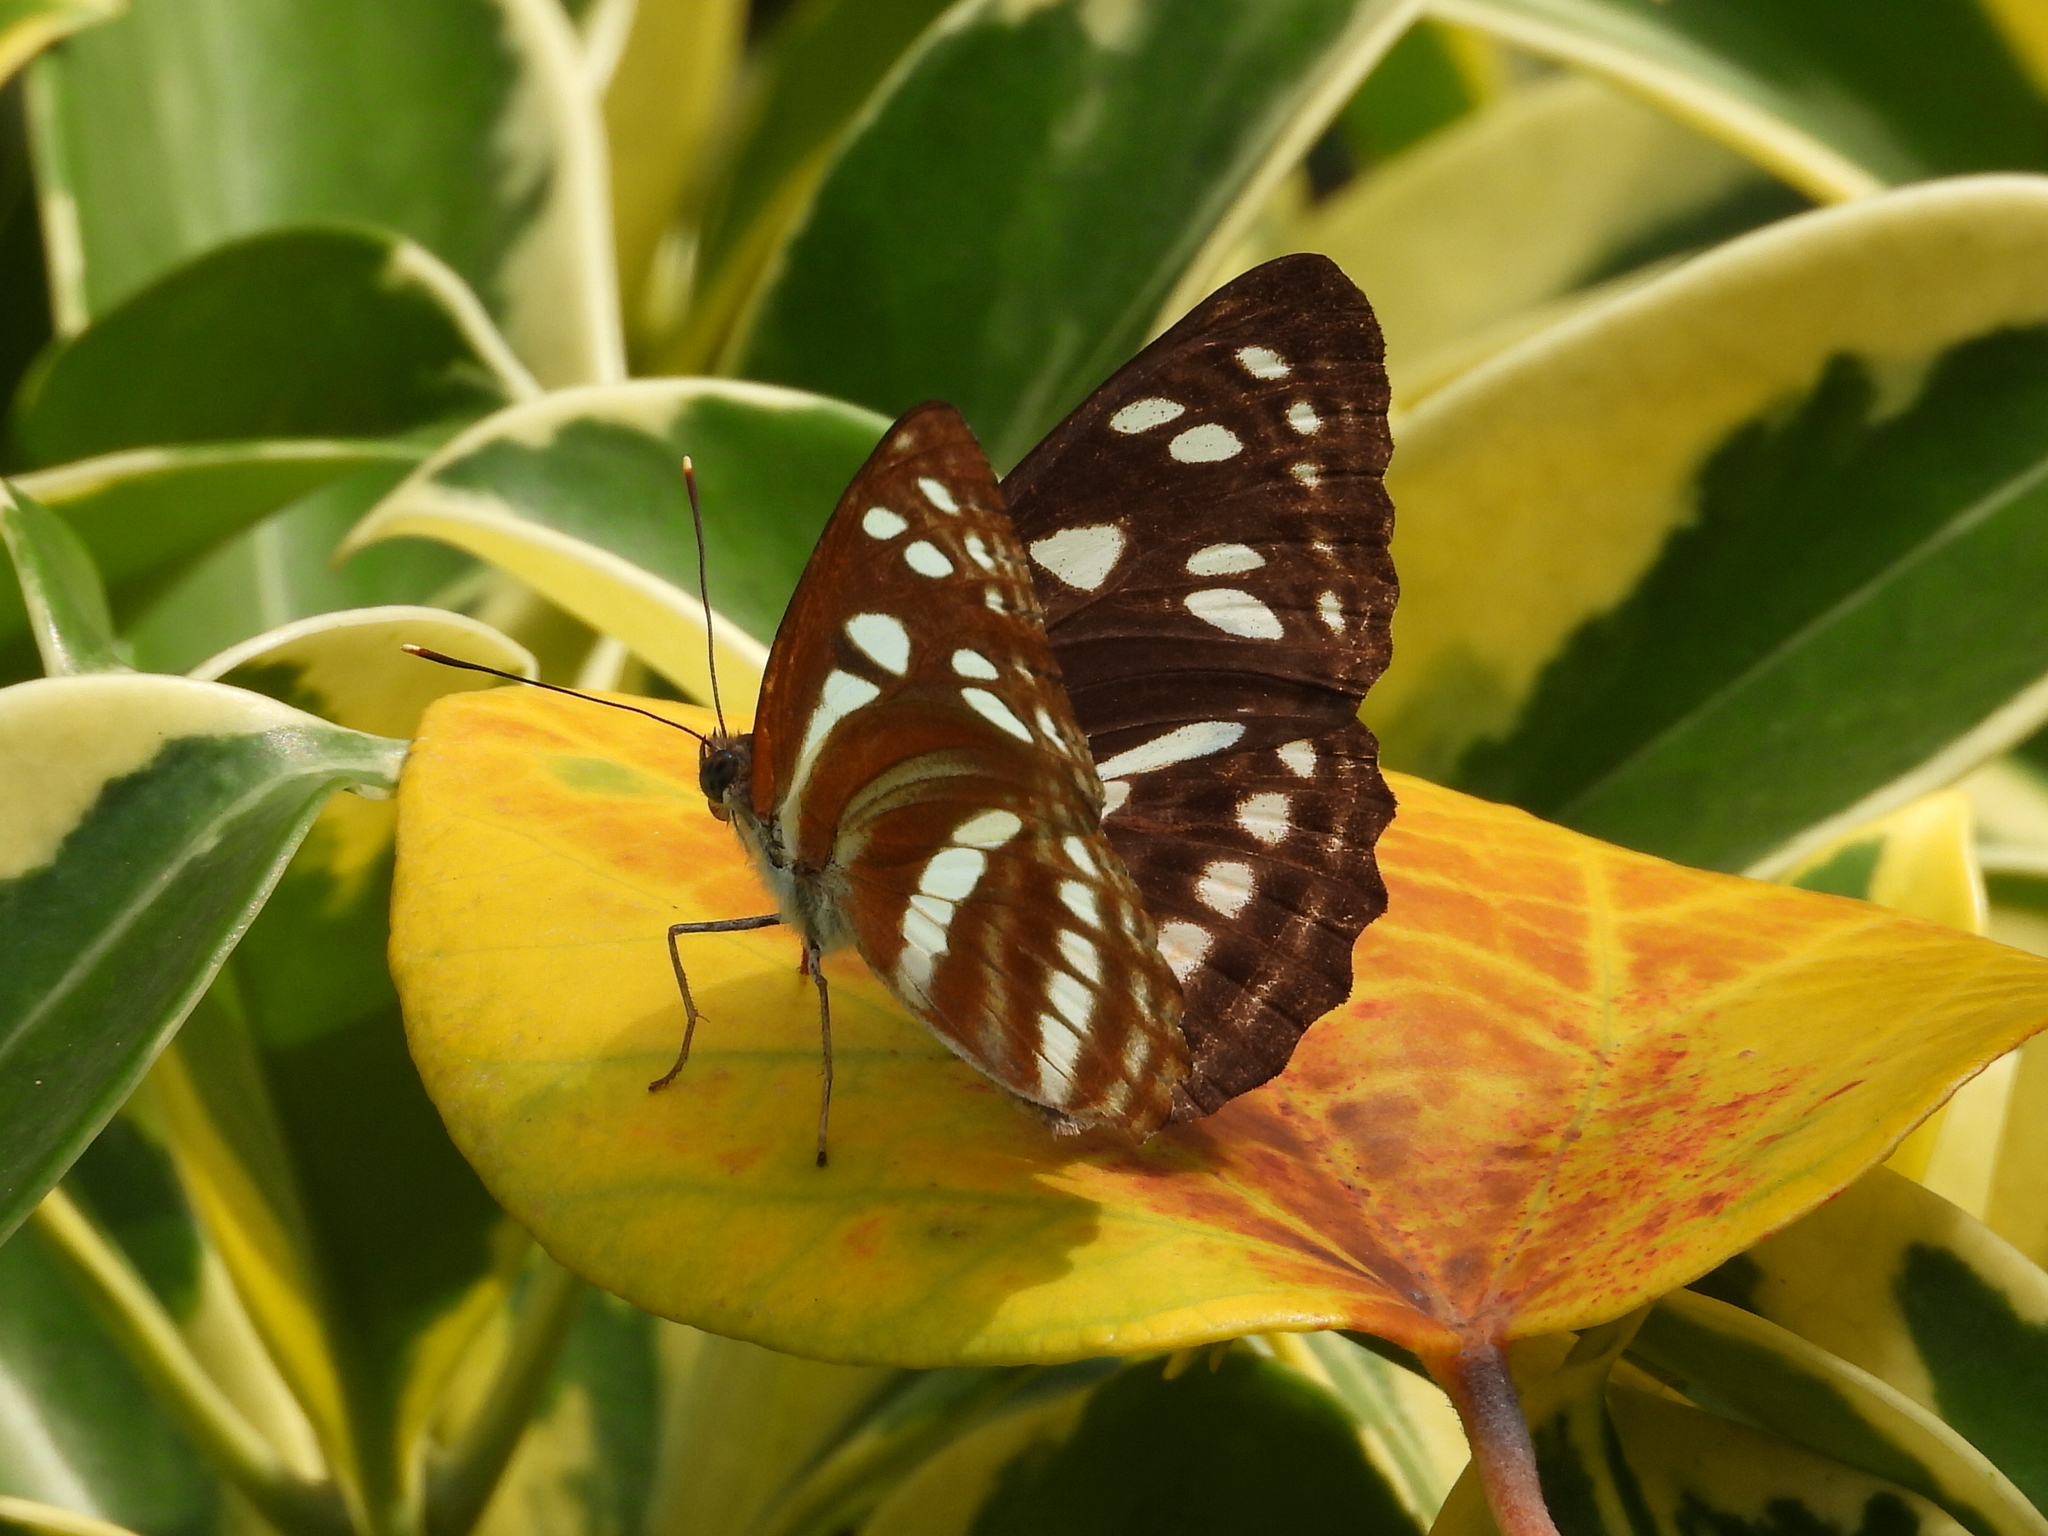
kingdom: Animalia
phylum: Arthropoda
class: Insecta
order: Lepidoptera
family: Nymphalidae
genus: Phaedyma
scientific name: Phaedyma columella
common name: Short banded sailer
